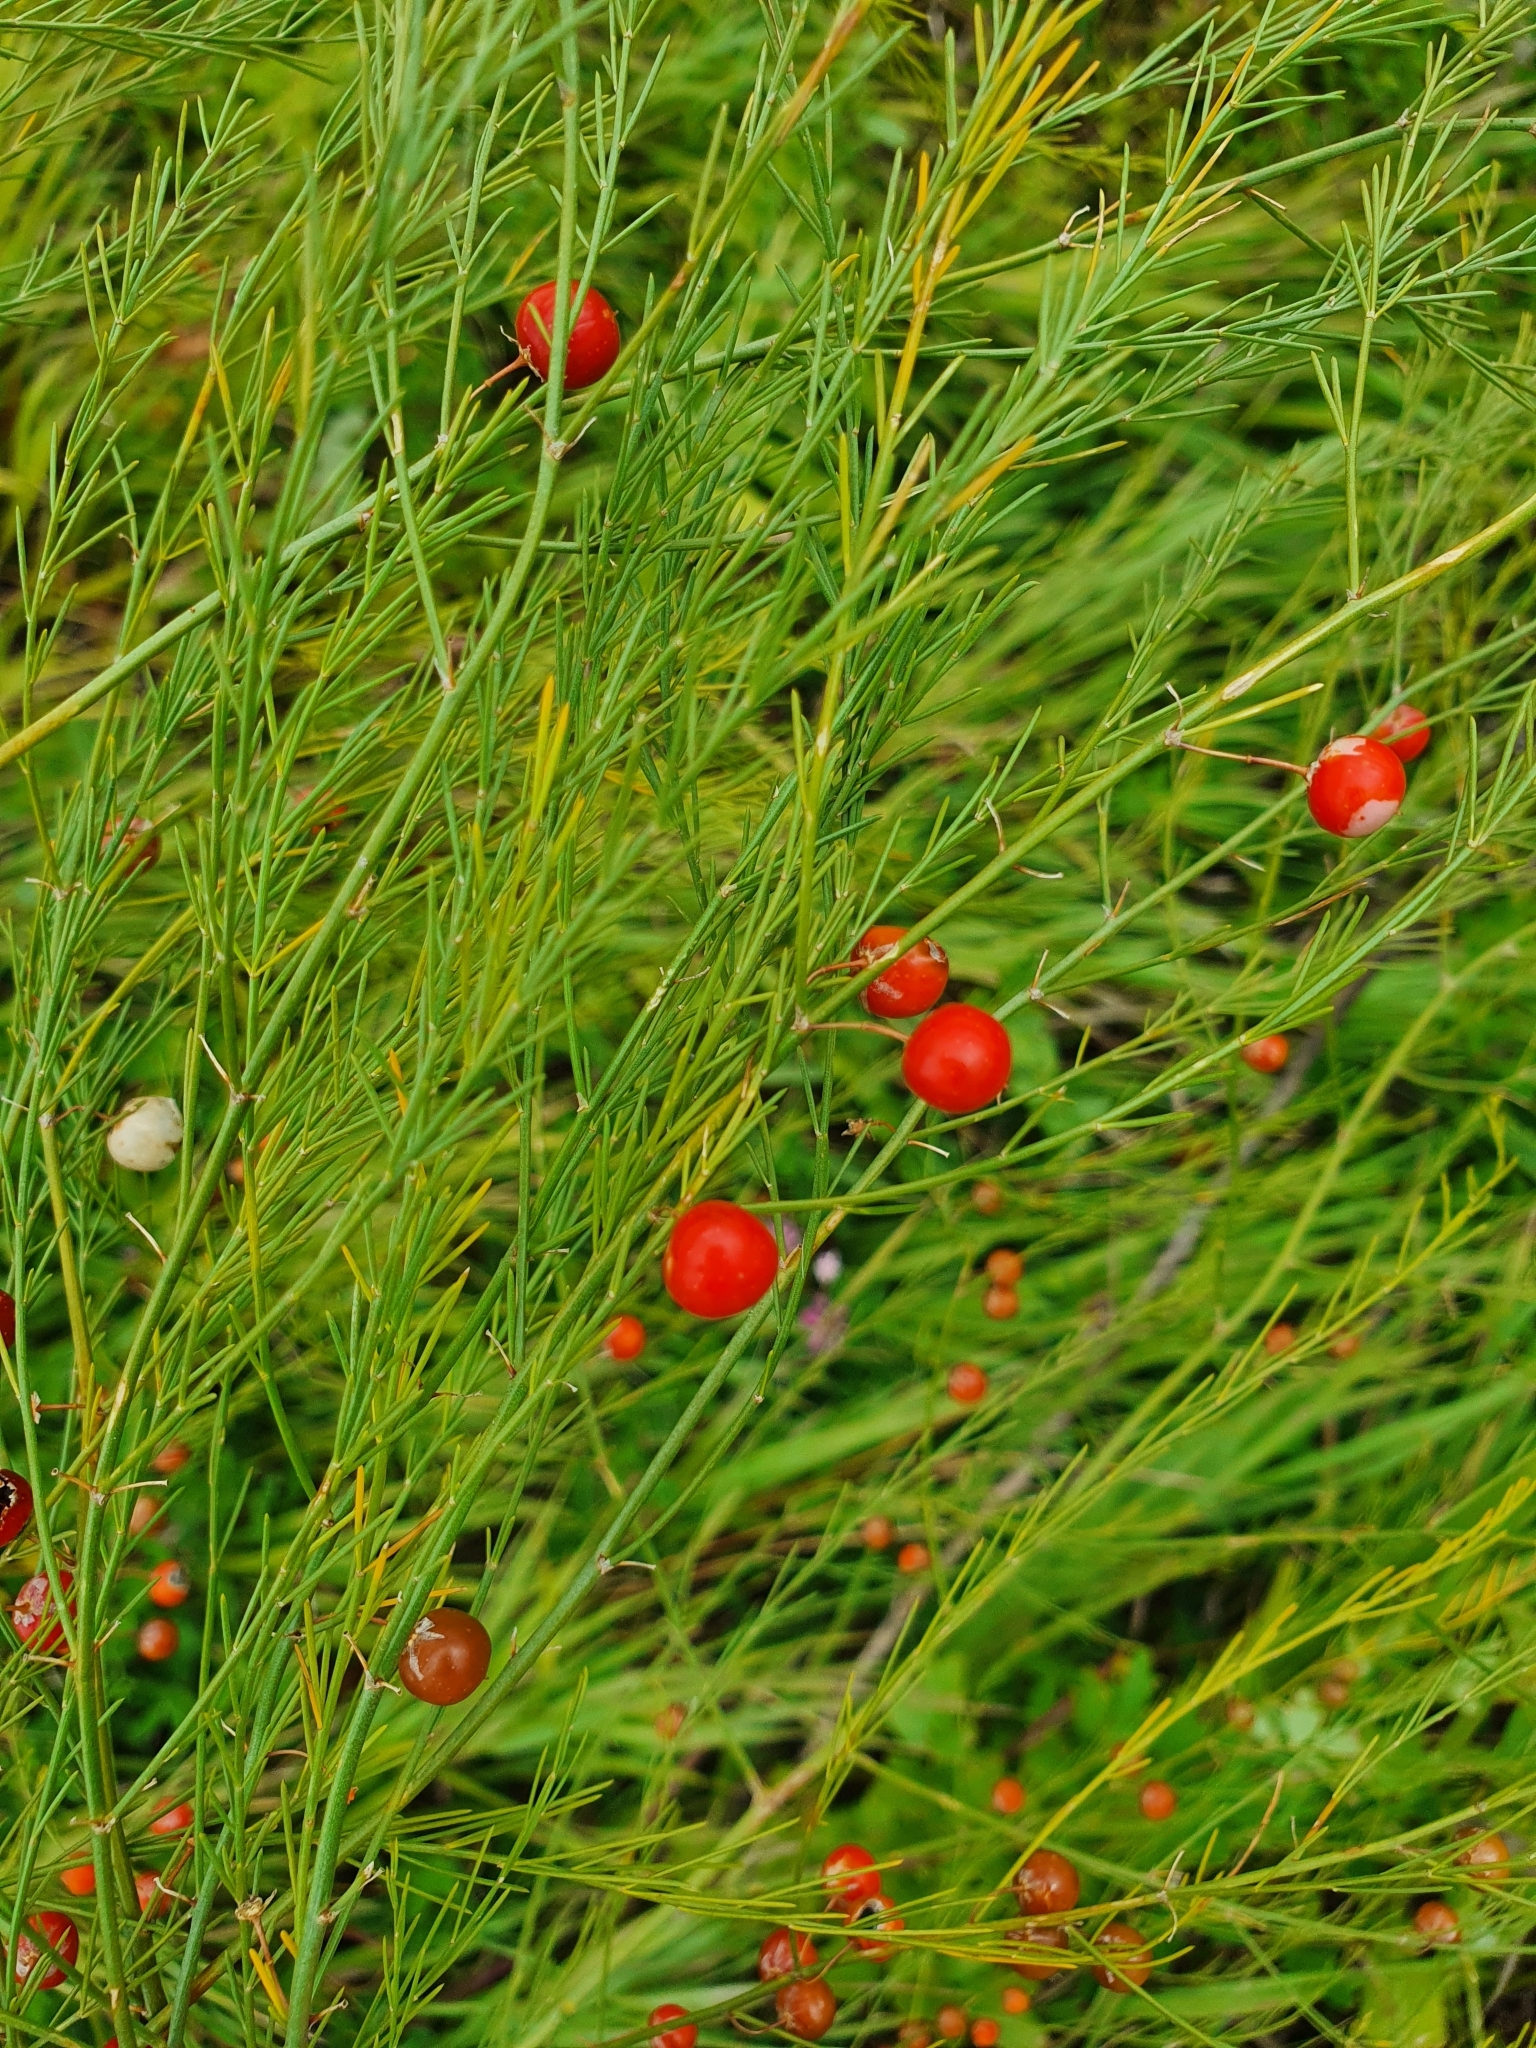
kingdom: Plantae
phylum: Tracheophyta
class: Liliopsida
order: Asparagales
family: Asparagaceae
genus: Asparagus
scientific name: Asparagus officinalis
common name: Garden asparagus
